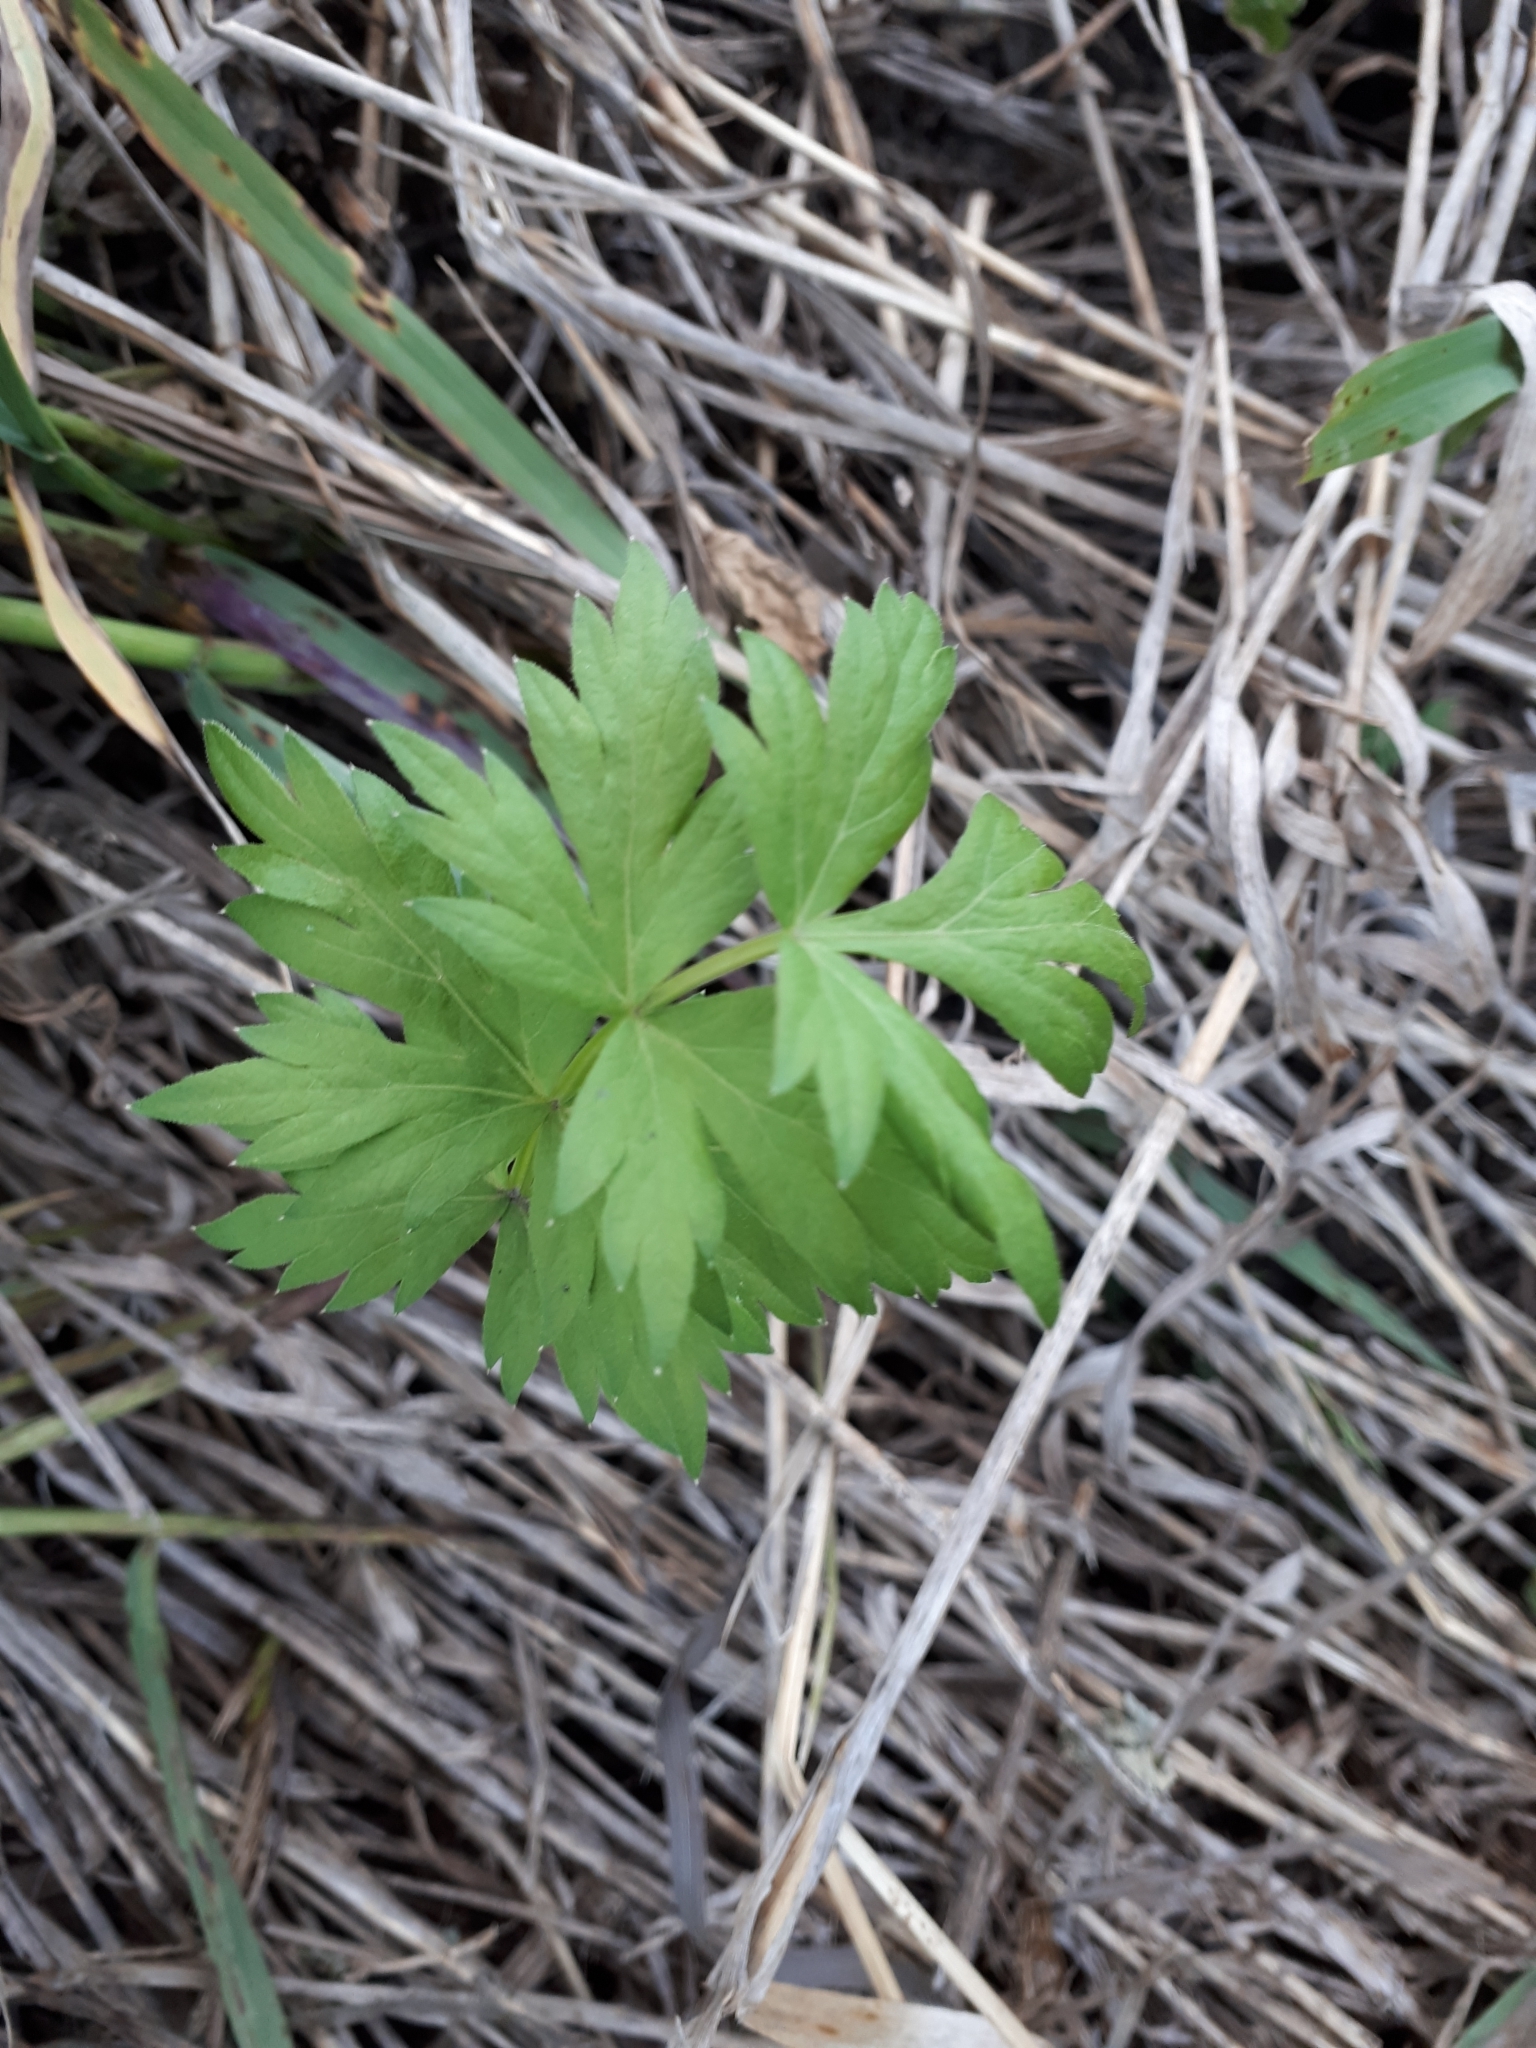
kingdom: Plantae
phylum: Tracheophyta
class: Magnoliopsida
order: Apiales
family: Apiaceae
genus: Seseli
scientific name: Seseli libanotis
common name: Mooncarrot
